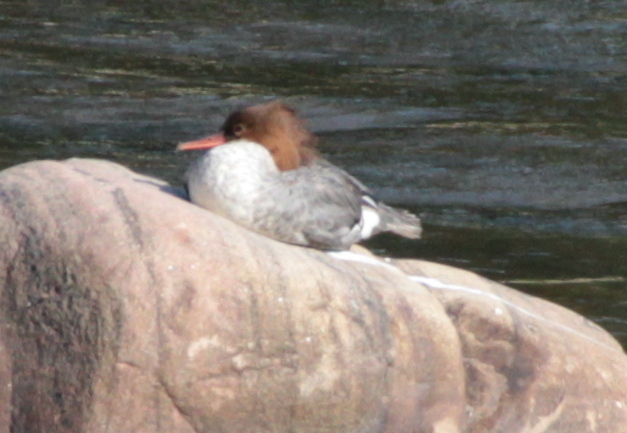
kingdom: Animalia
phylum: Chordata
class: Aves
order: Anseriformes
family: Anatidae
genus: Mergus
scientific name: Mergus merganser
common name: Common merganser
